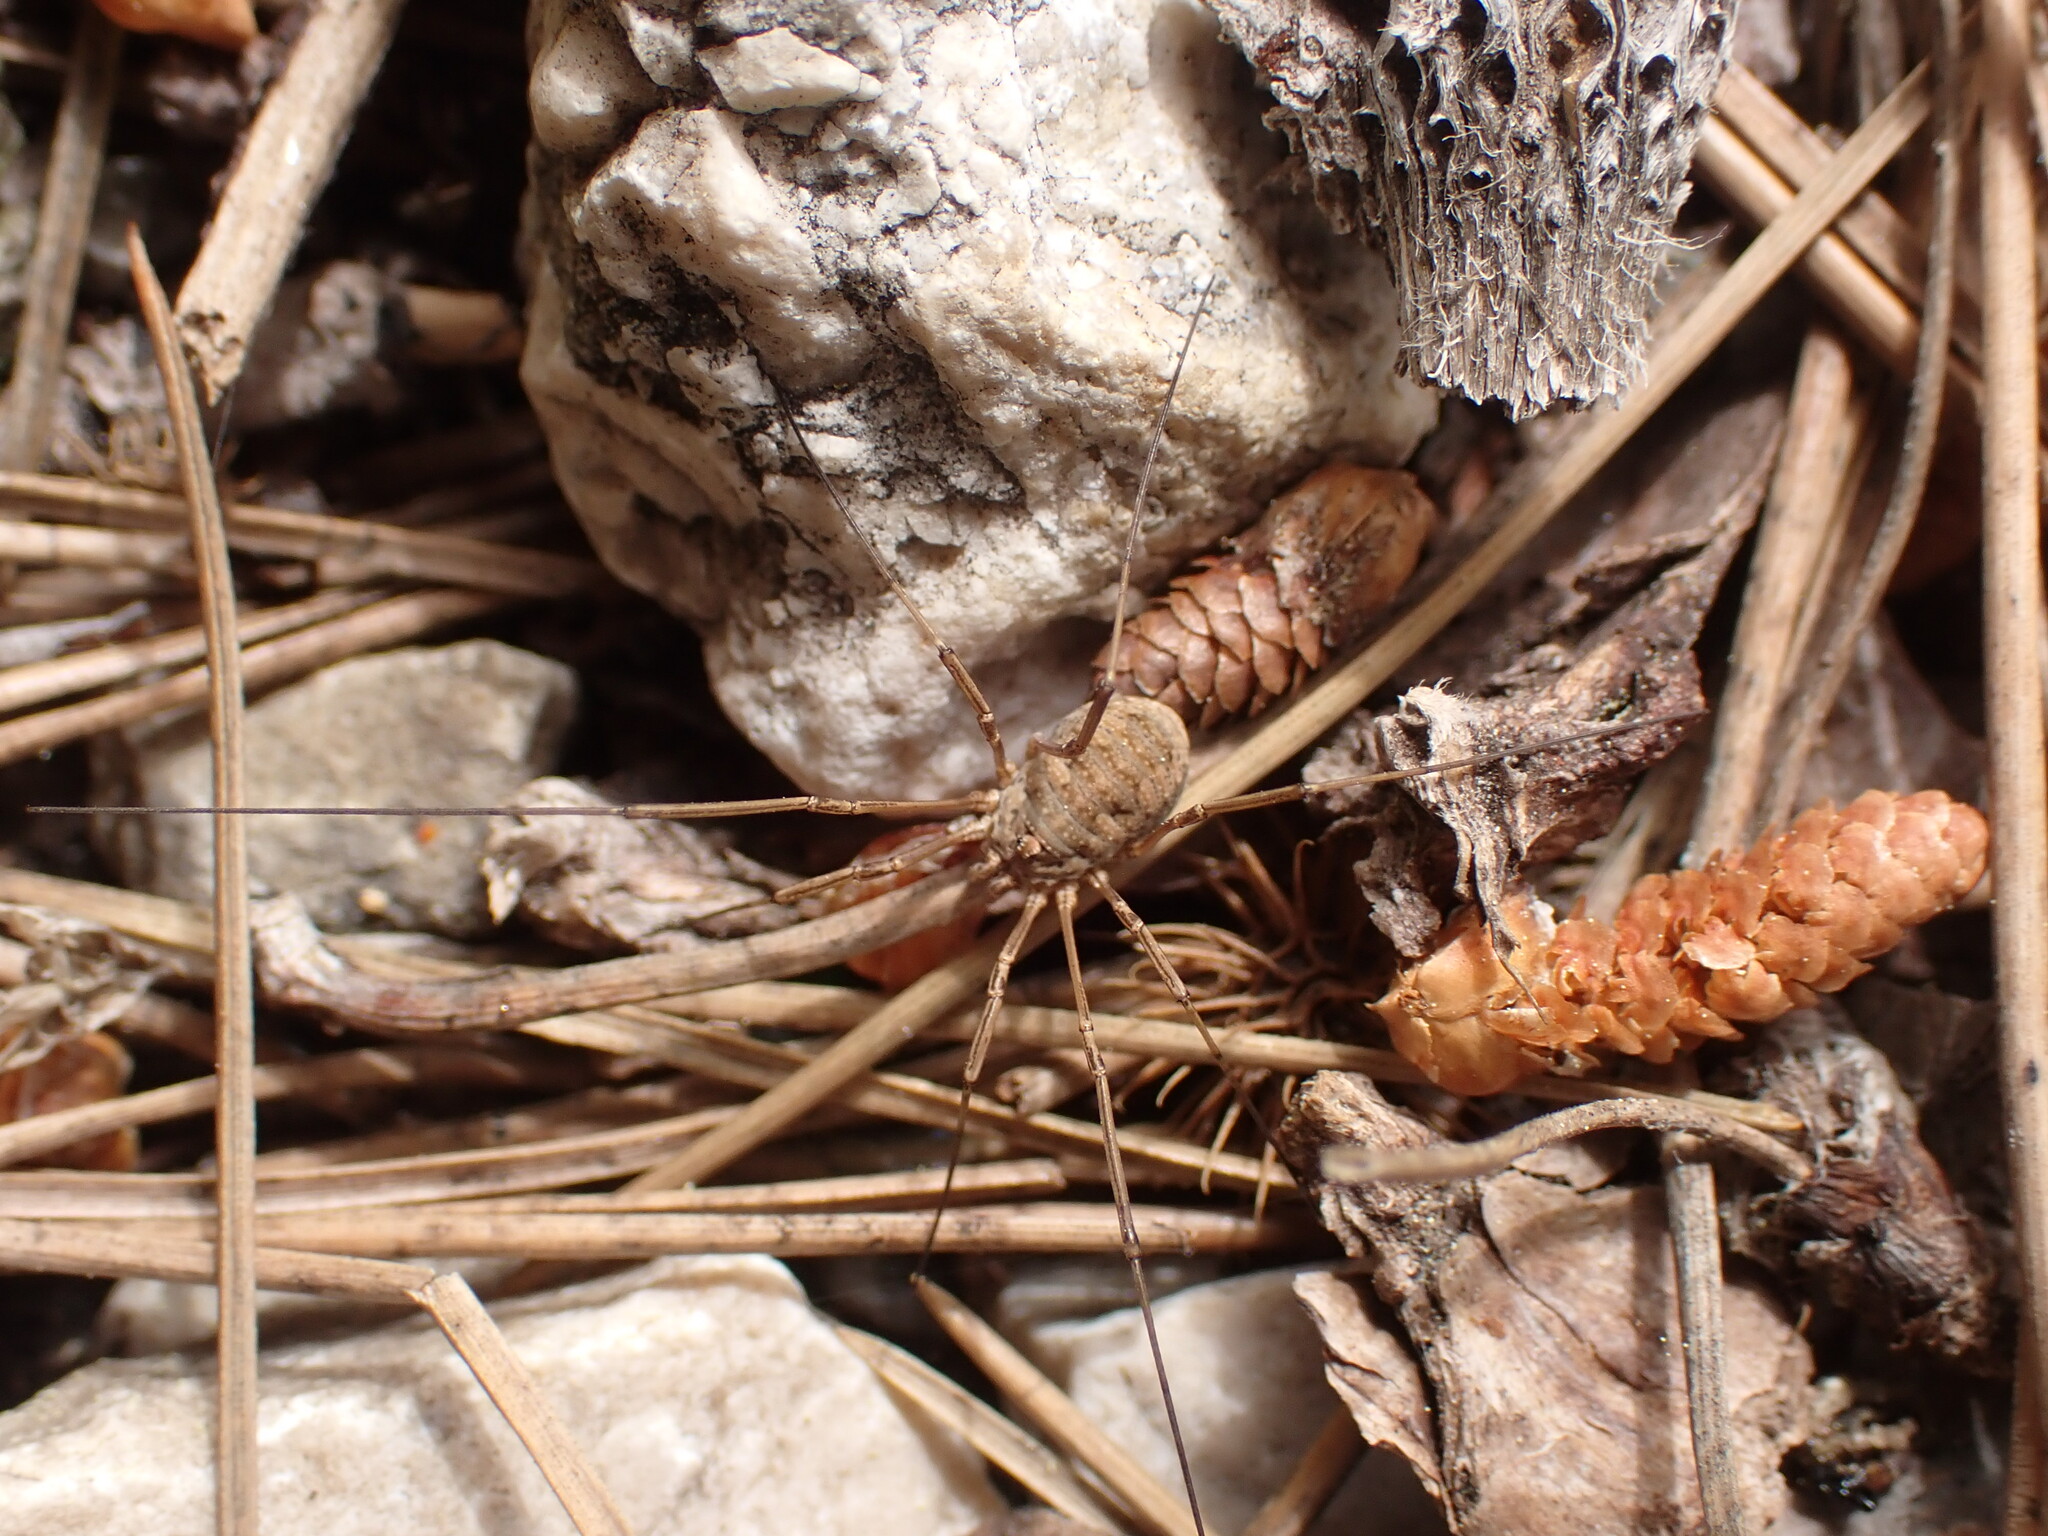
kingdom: Animalia
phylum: Arthropoda
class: Arachnida
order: Opiliones
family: Phalangiidae
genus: Phalangium
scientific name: Phalangium opilio
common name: Daddy longleg
